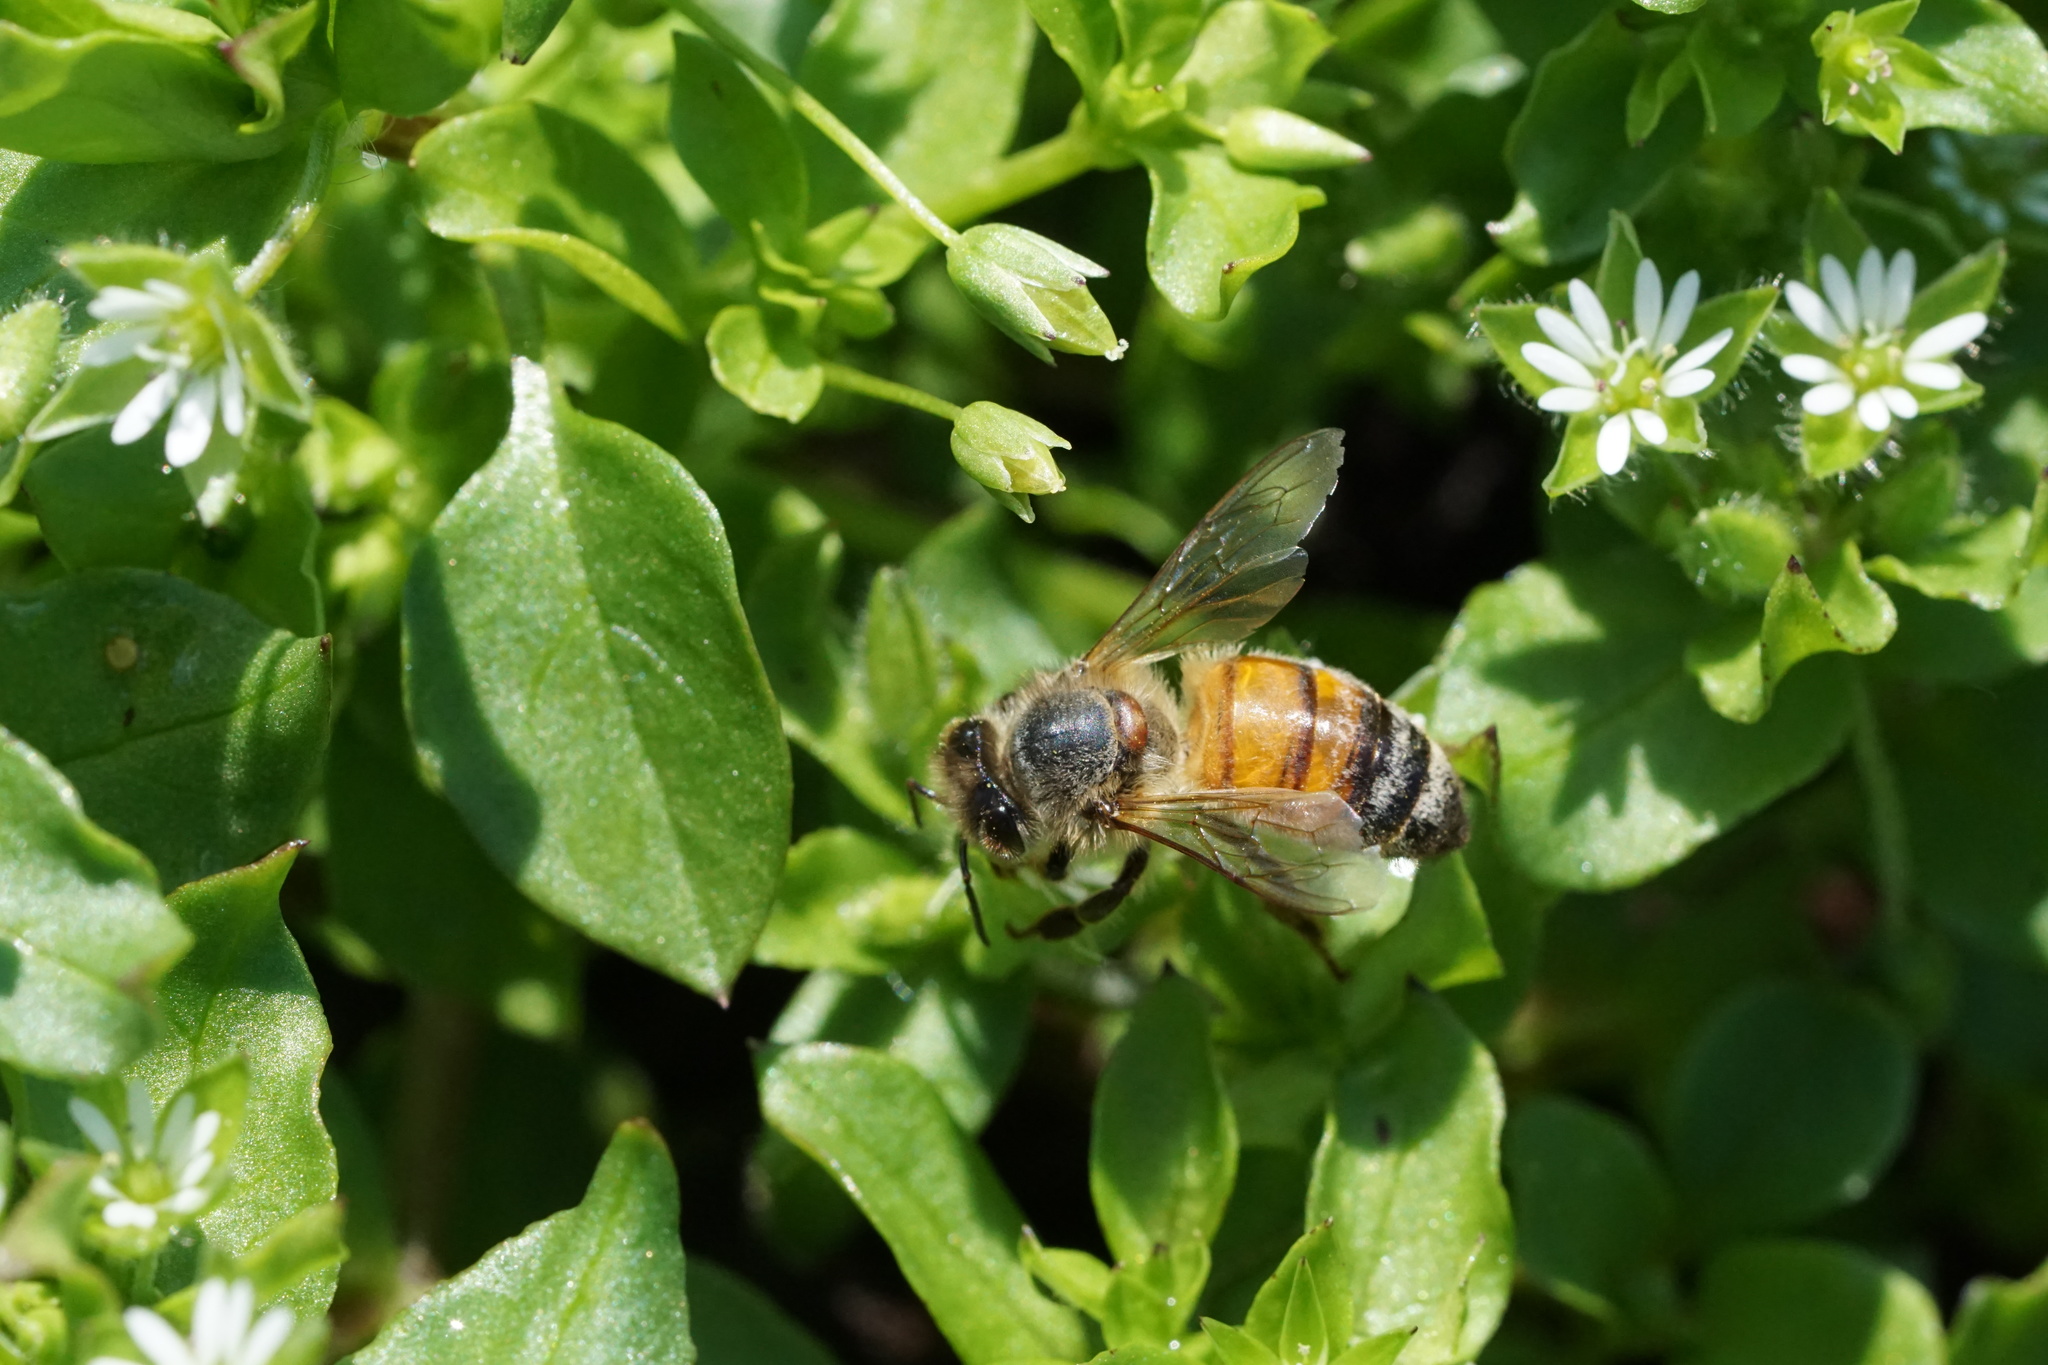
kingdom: Animalia
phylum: Arthropoda
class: Insecta
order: Hymenoptera
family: Apidae
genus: Apis
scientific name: Apis mellifera
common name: Honey bee
